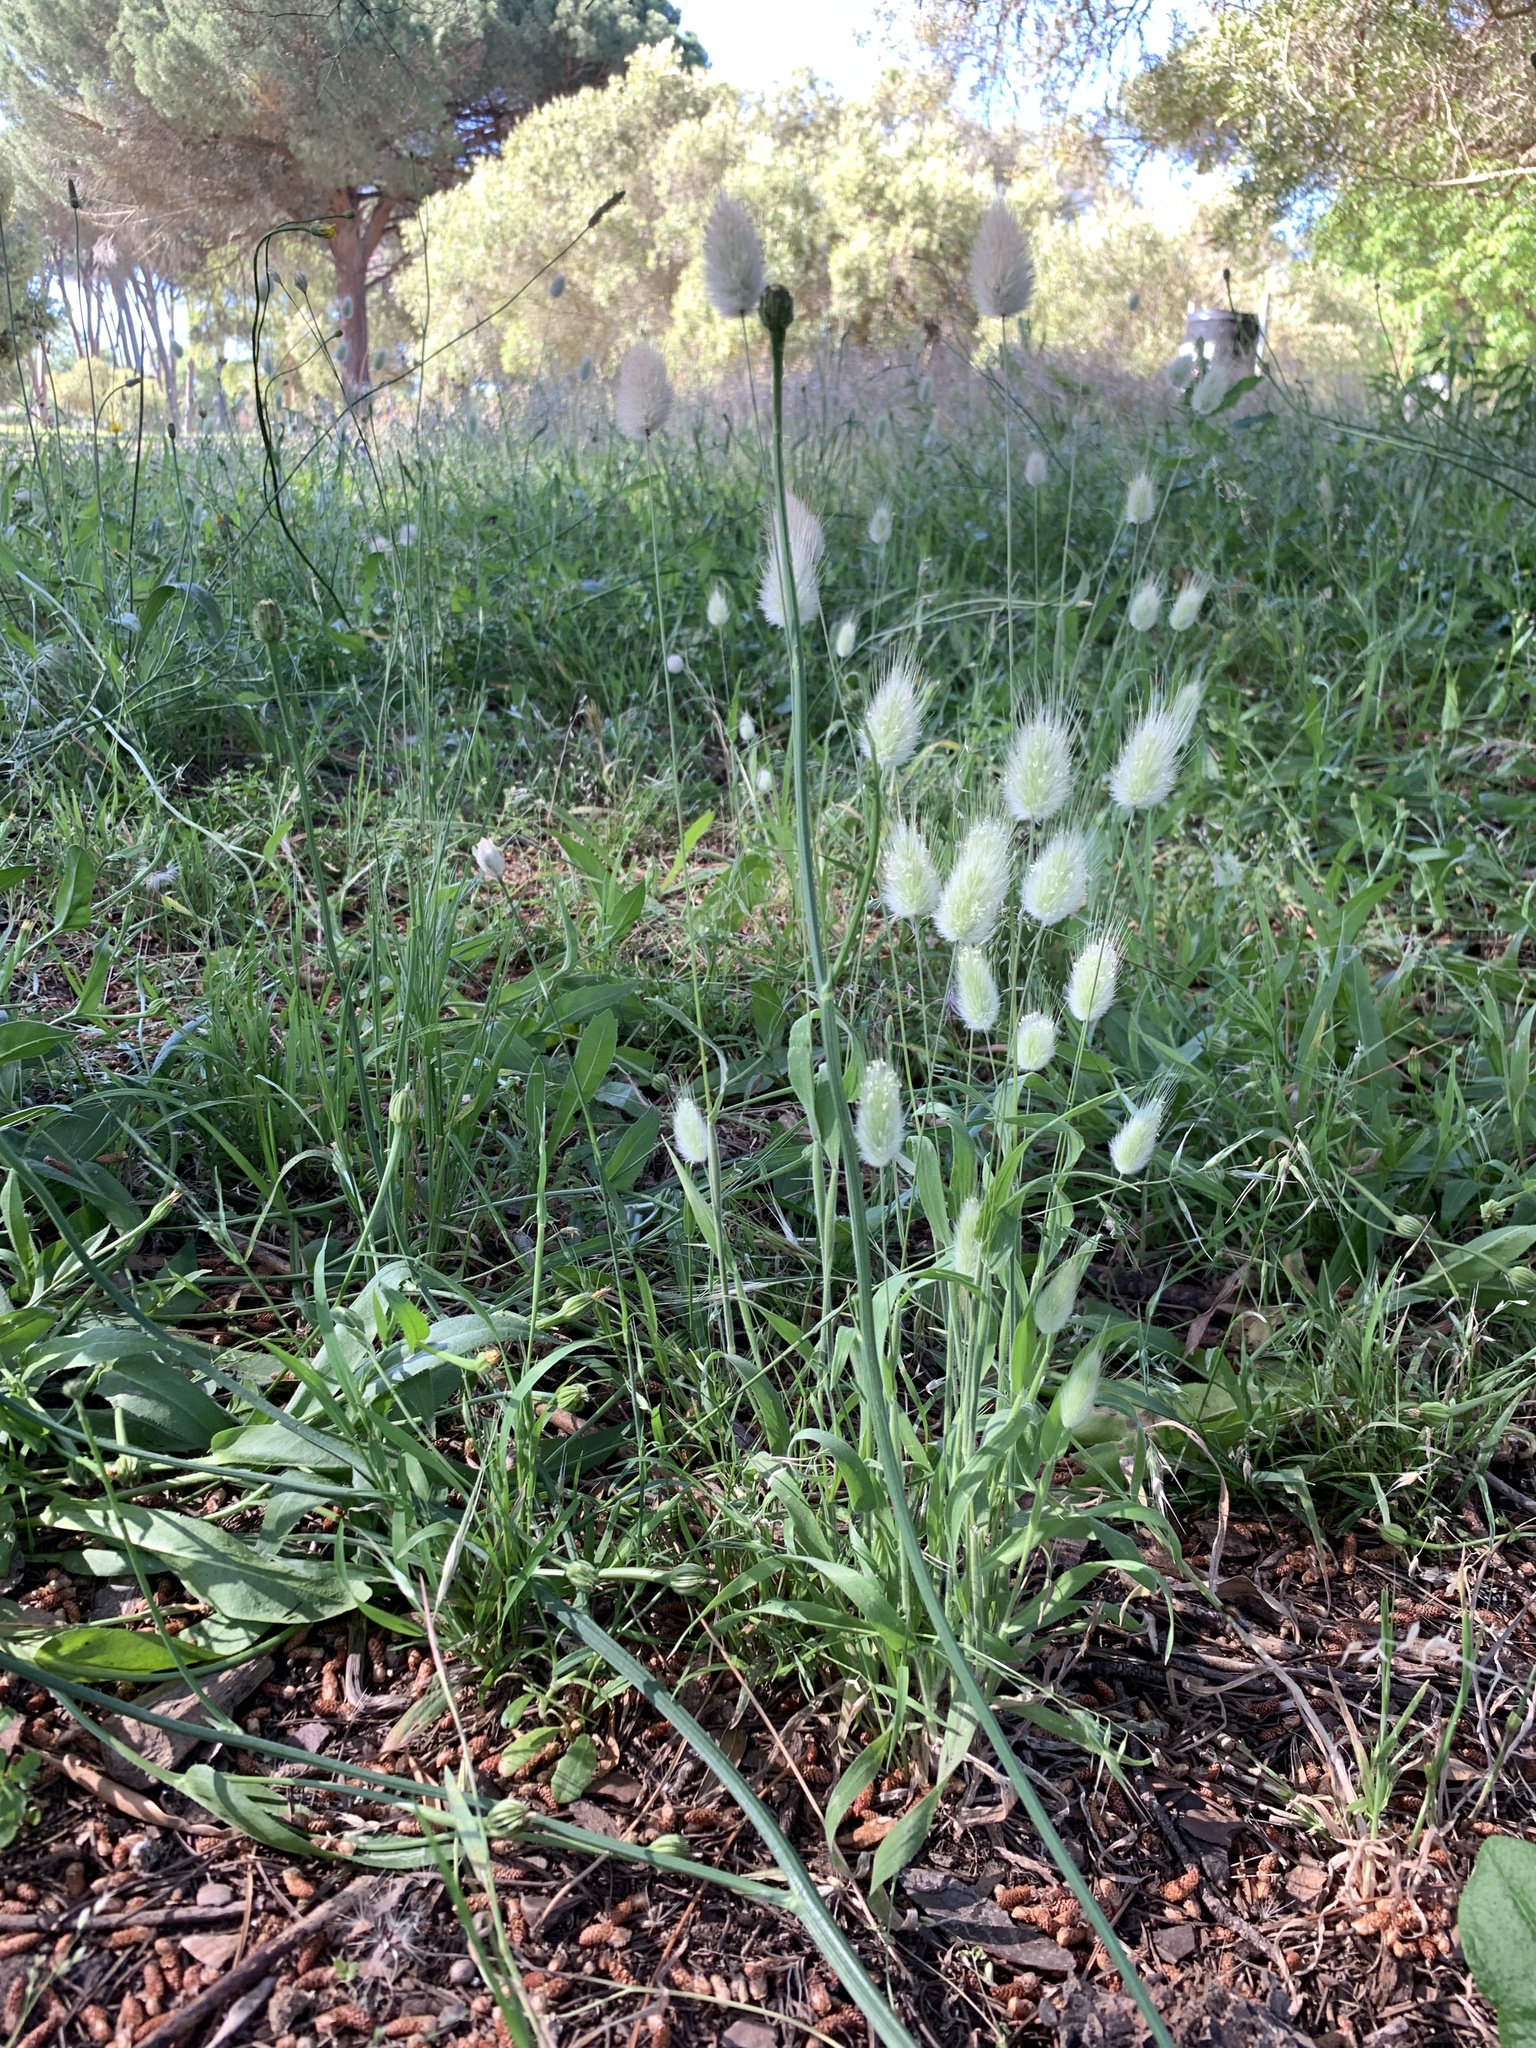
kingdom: Plantae
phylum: Tracheophyta
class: Liliopsida
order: Poales
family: Poaceae
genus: Lagurus
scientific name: Lagurus ovatus
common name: Hare's-tail
